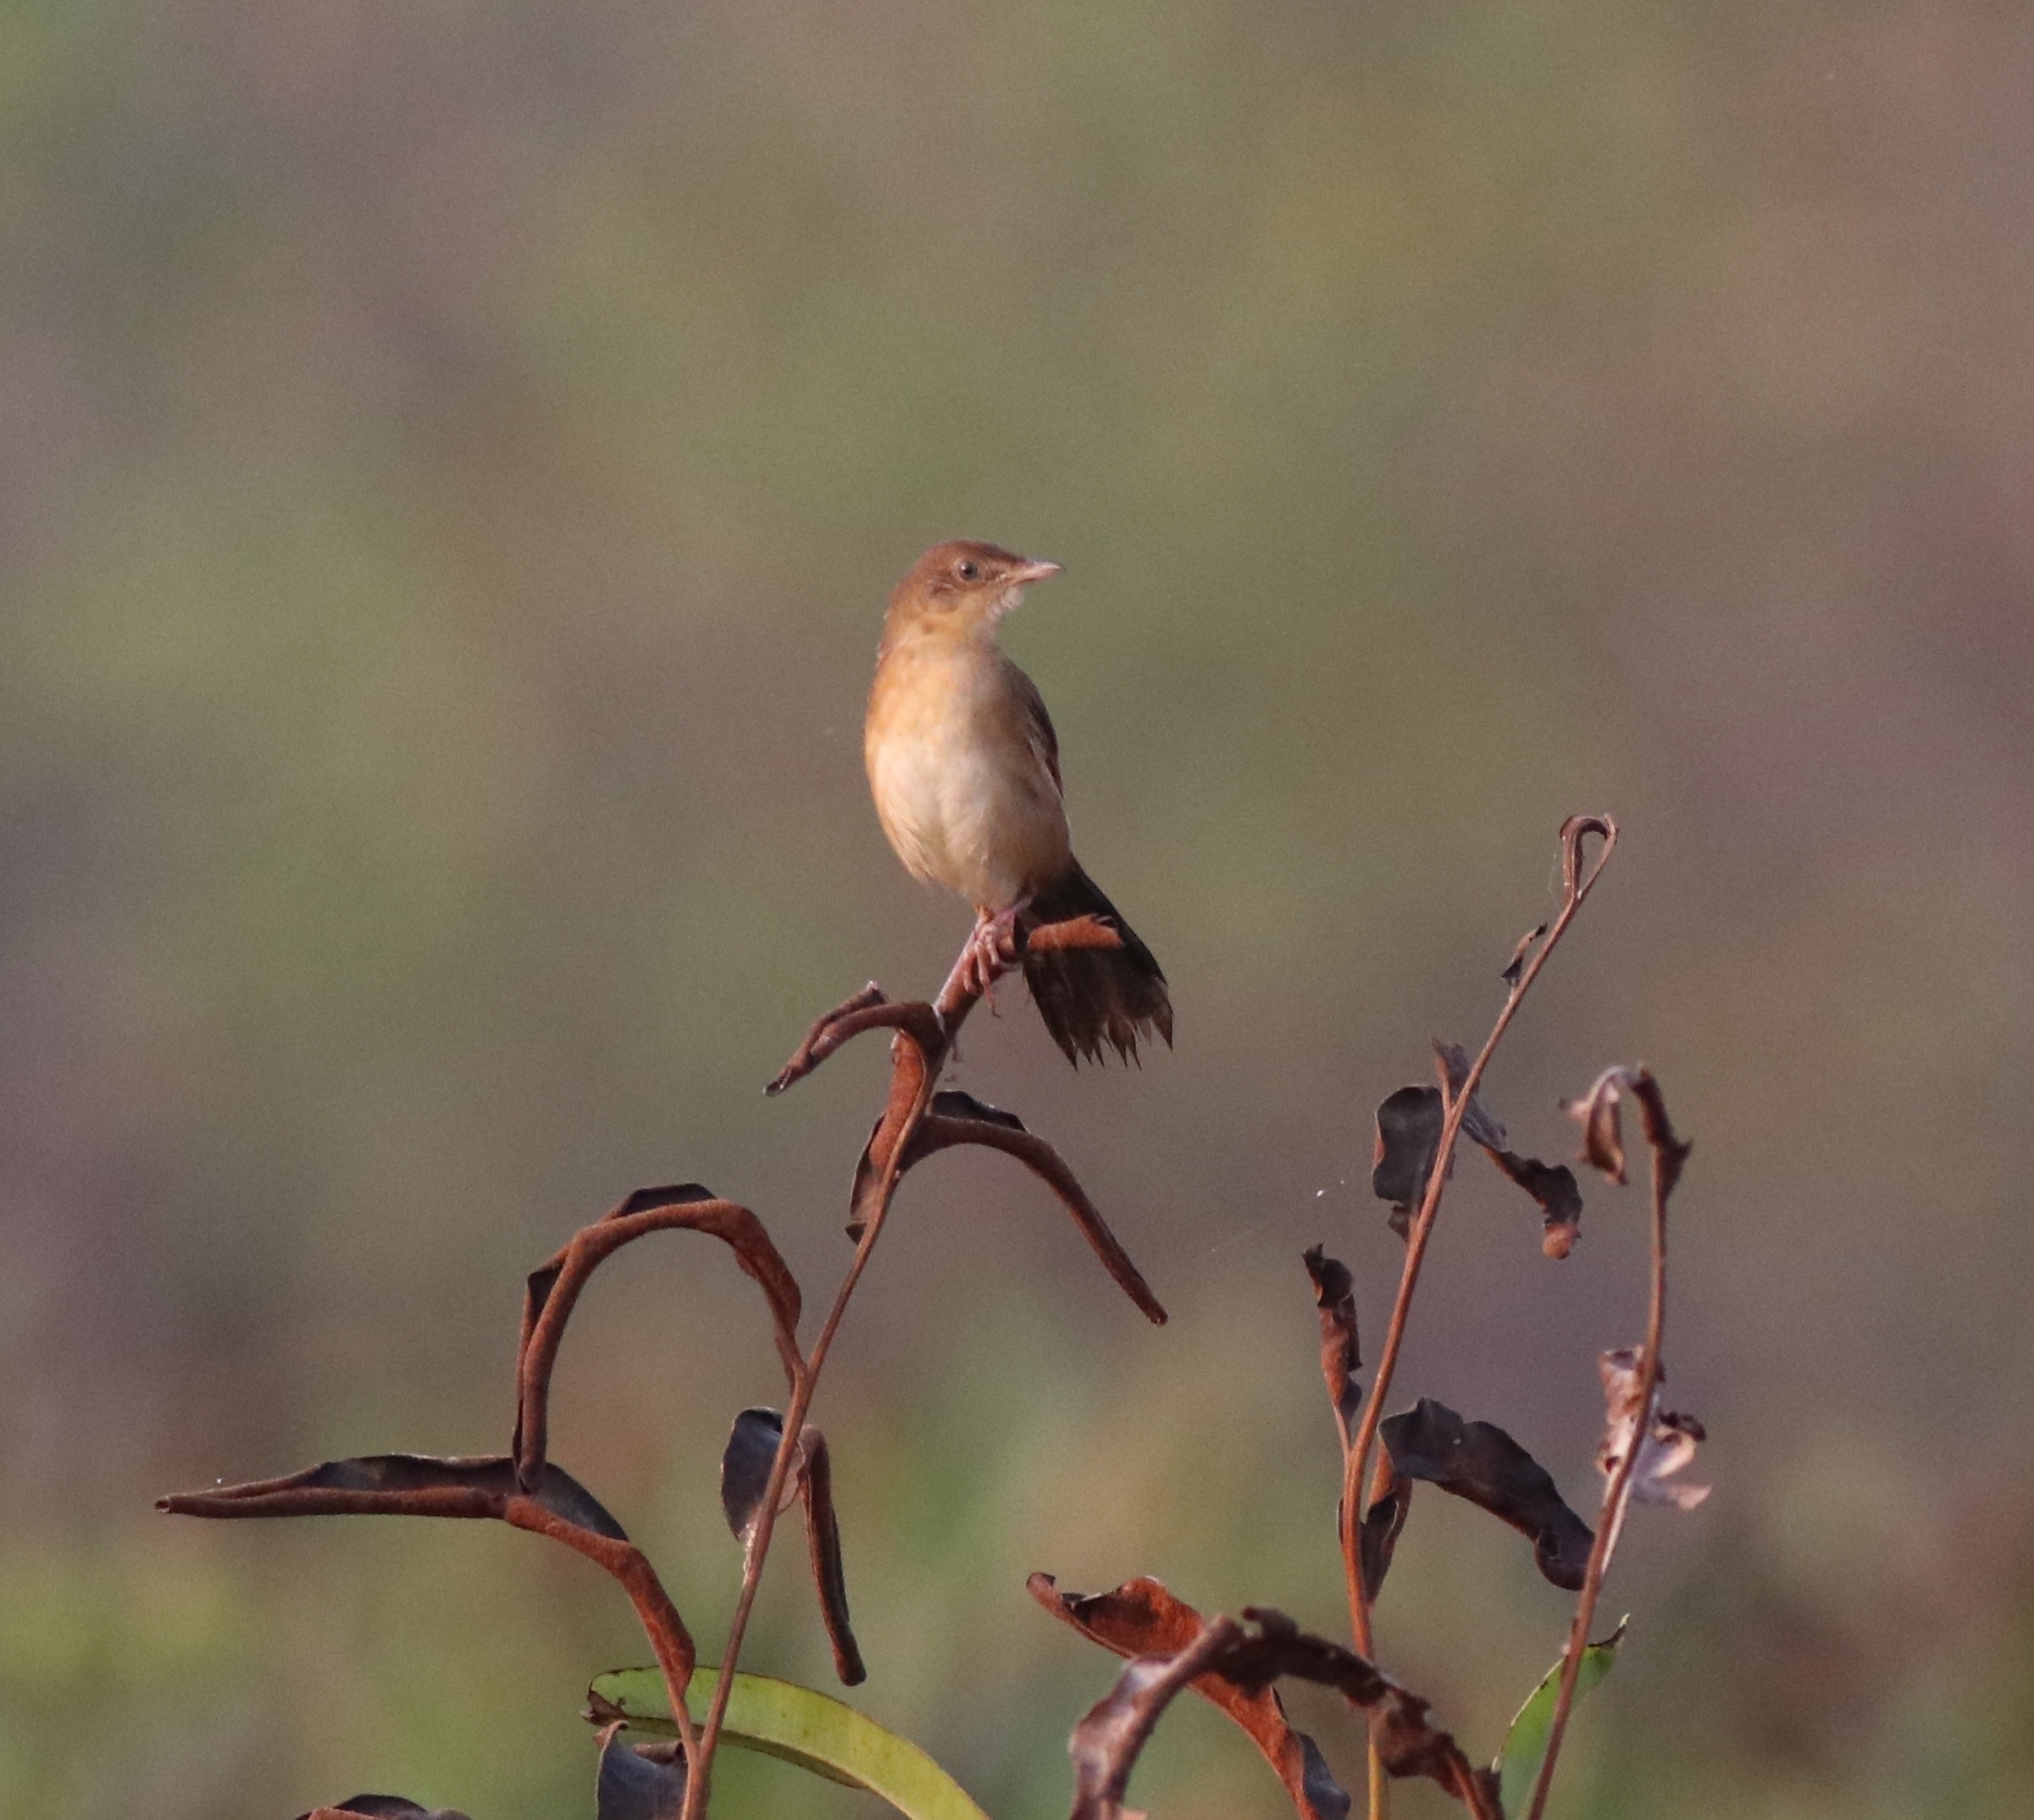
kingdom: Animalia
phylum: Chordata
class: Aves
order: Passeriformes
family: Locustellidae
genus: Schoenicola
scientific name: Schoenicola platyurus
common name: Broad-tailed grassbird
